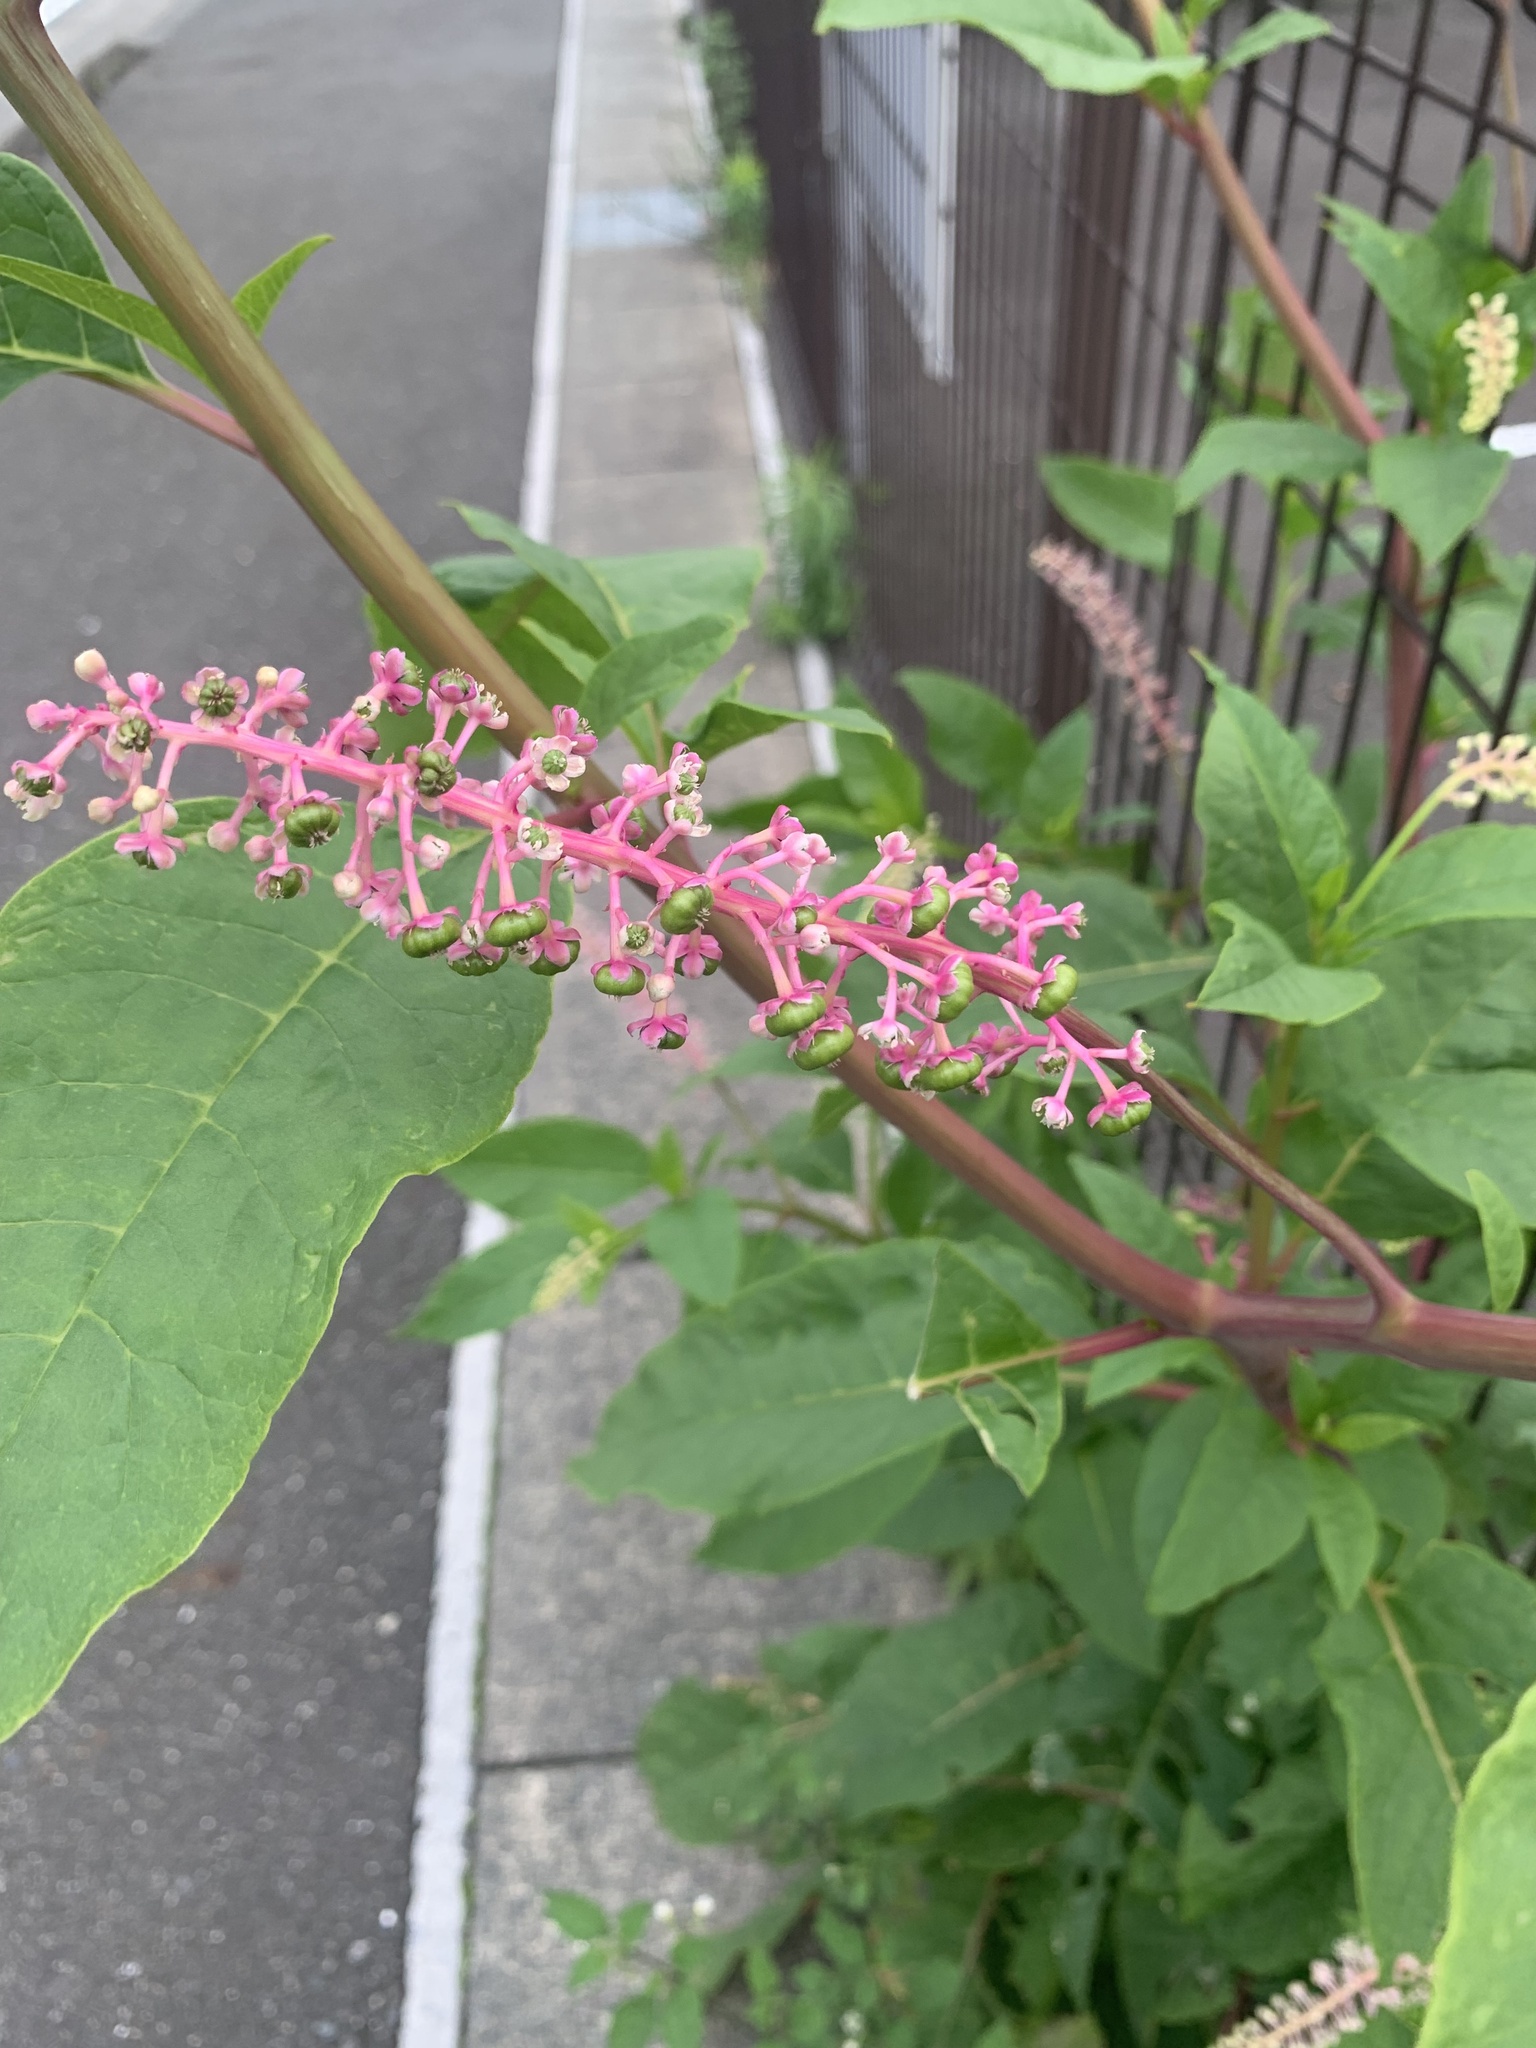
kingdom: Plantae
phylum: Tracheophyta
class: Magnoliopsida
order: Caryophyllales
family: Phytolaccaceae
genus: Phytolacca
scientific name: Phytolacca americana
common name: American pokeweed
